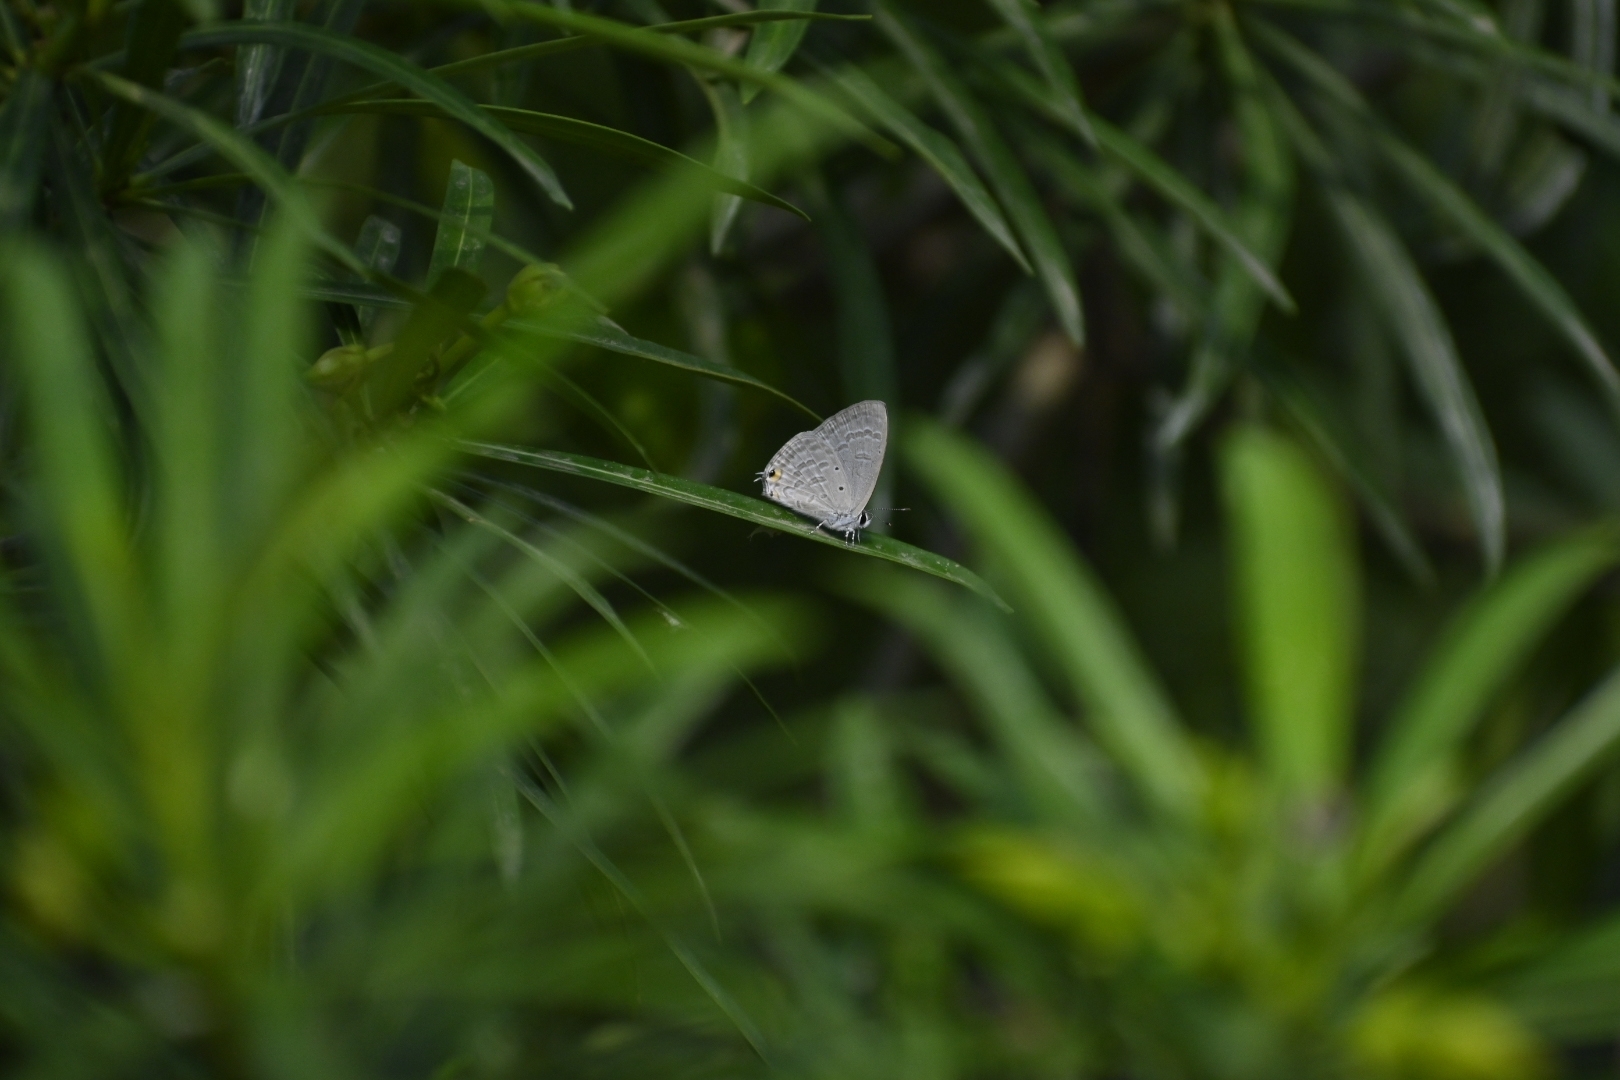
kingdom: Animalia
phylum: Arthropoda
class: Insecta
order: Lepidoptera
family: Lycaenidae
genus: Catochrysops
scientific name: Catochrysops strabo
